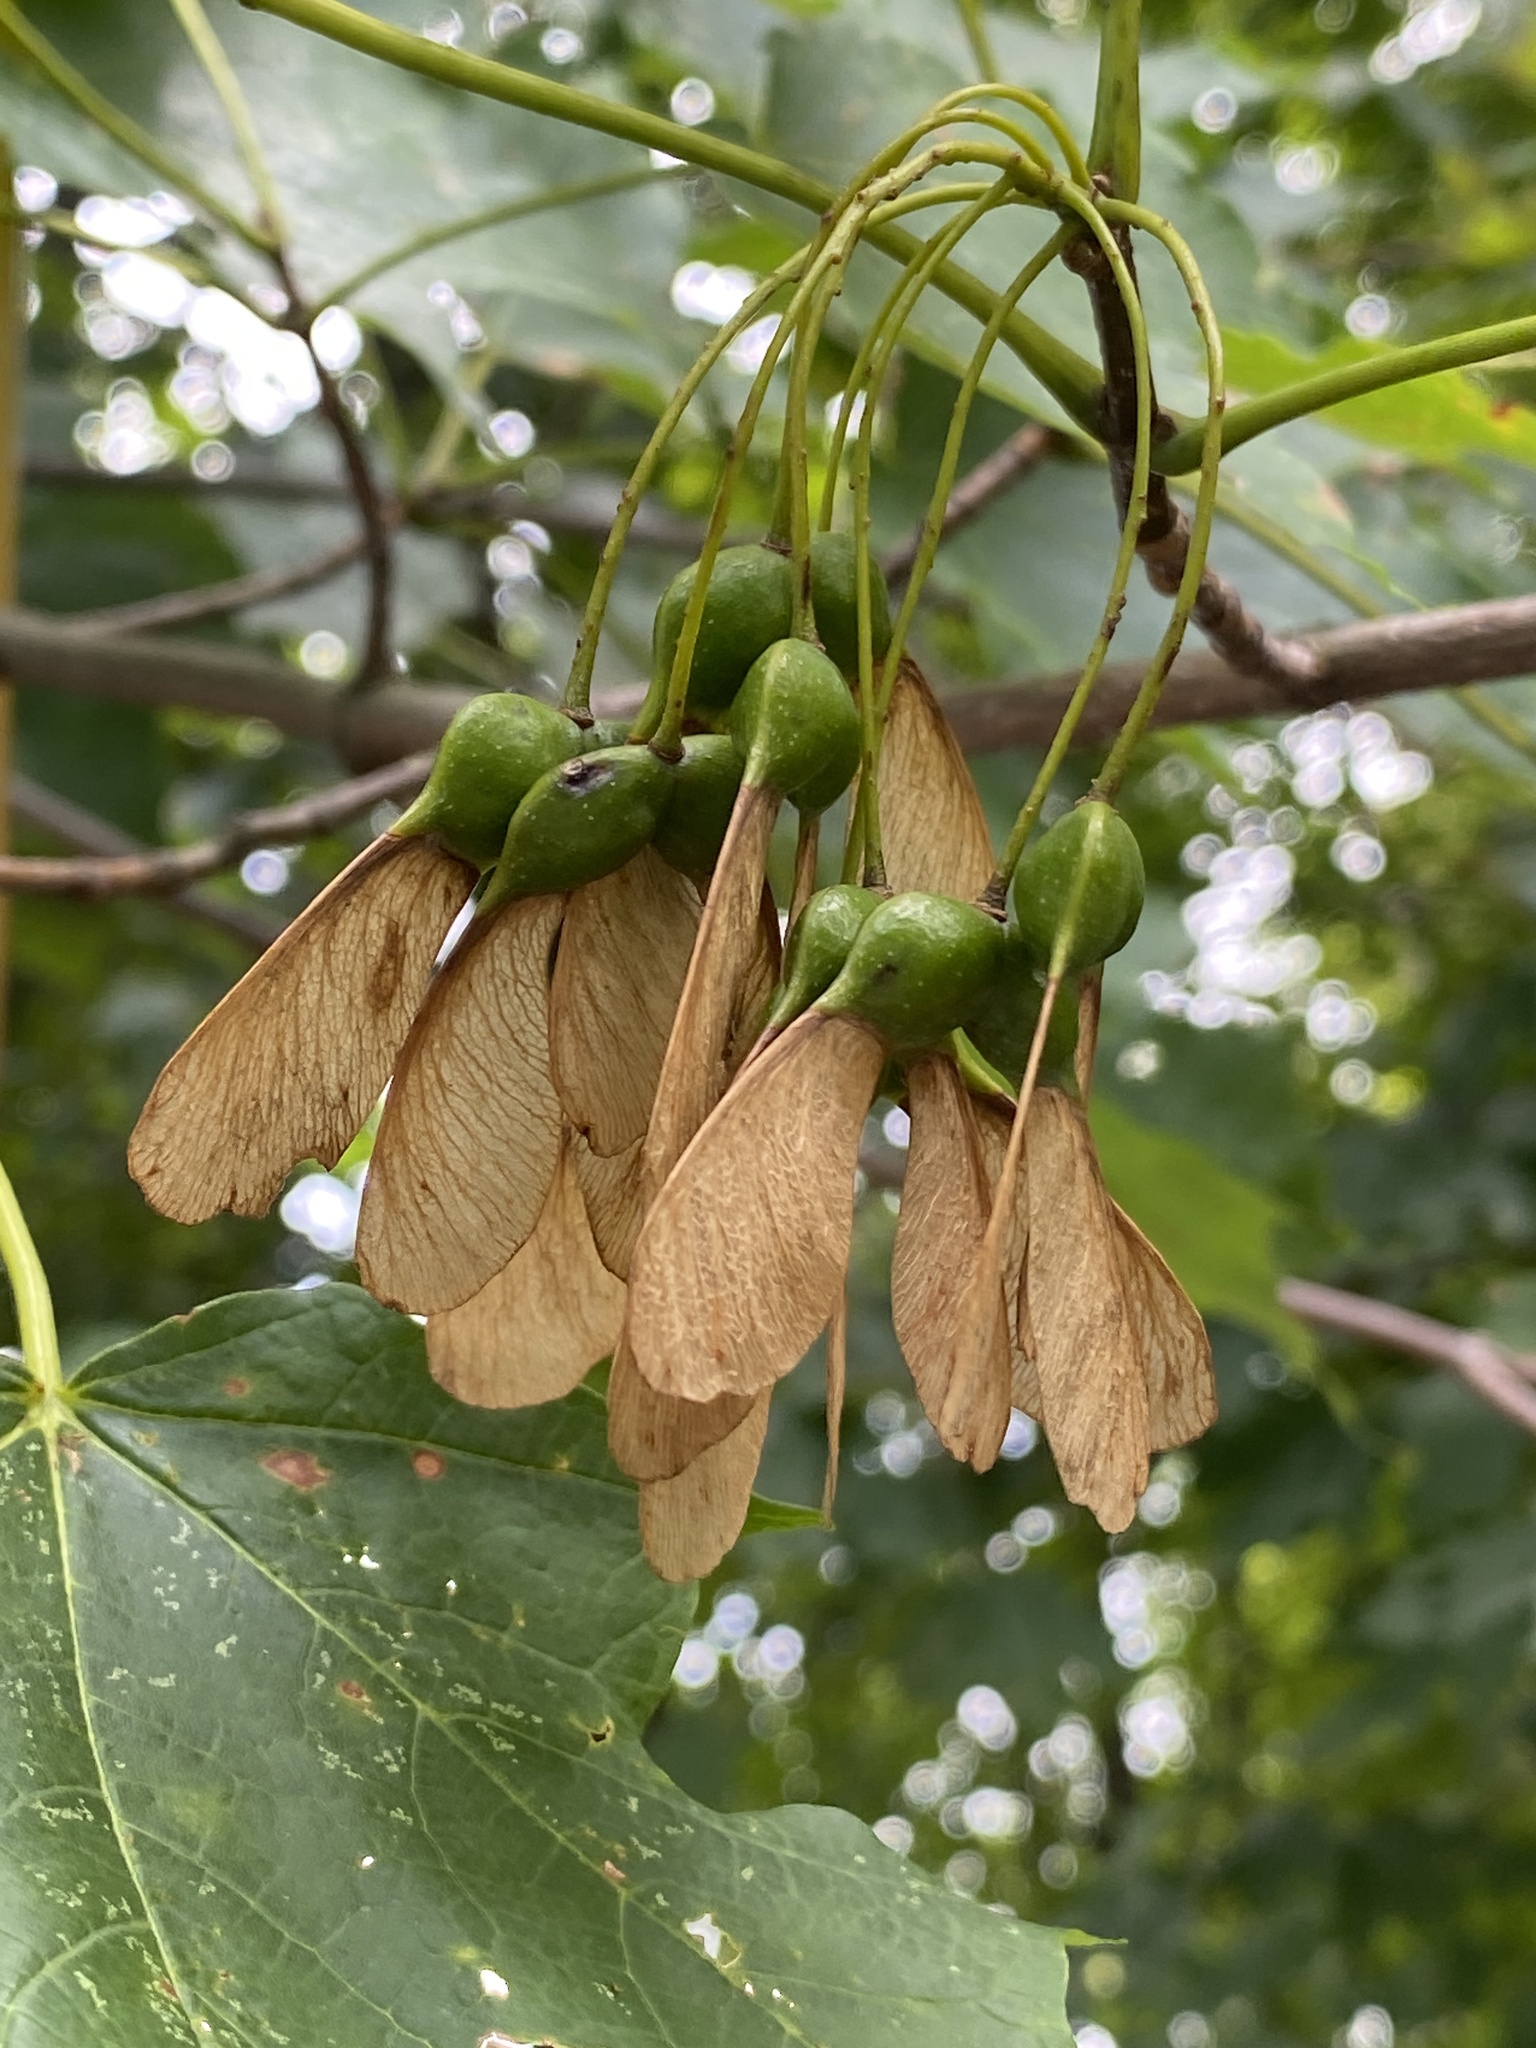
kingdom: Plantae
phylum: Tracheophyta
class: Magnoliopsida
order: Sapindales
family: Sapindaceae
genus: Acer
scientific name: Acer saccharum
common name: Sugar maple
